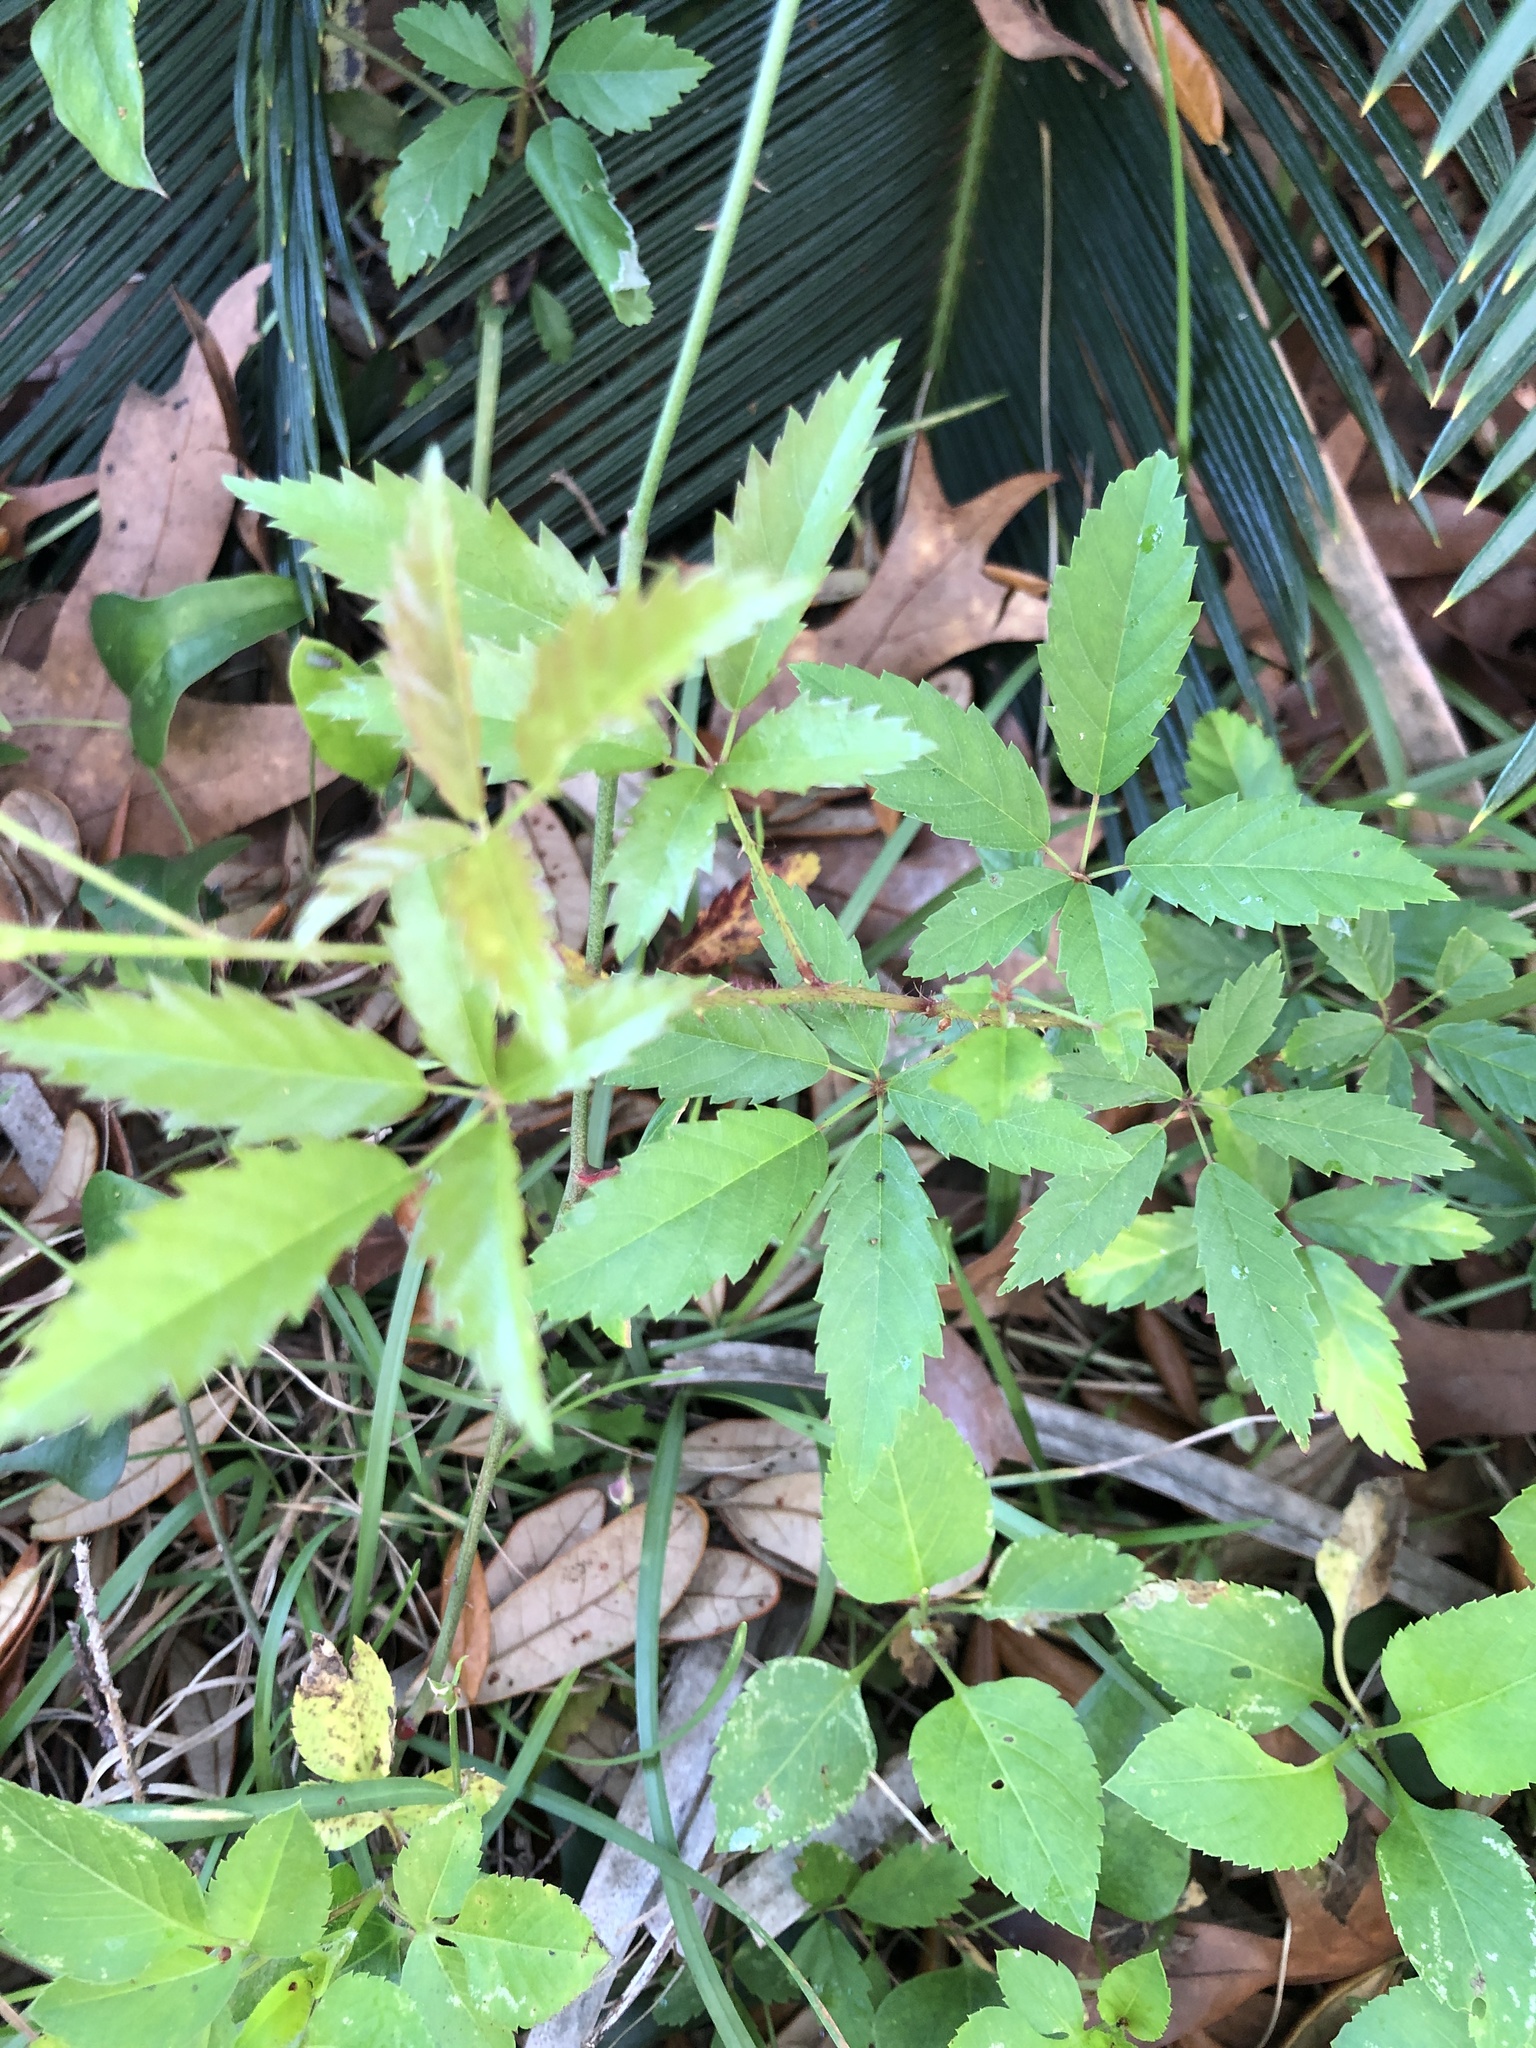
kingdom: Plantae
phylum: Tracheophyta
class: Magnoliopsida
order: Rosales
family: Rosaceae
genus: Rubus
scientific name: Rubus trivialis
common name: Southern dewberry
